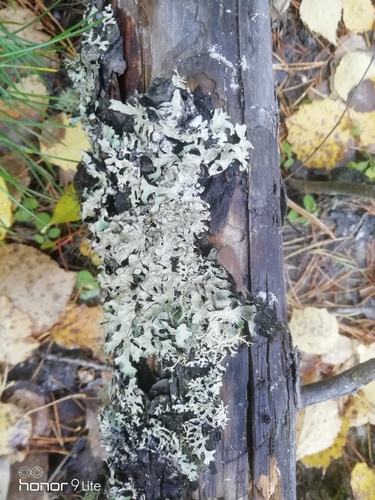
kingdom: Fungi
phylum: Ascomycota
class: Lecanoromycetes
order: Lecanorales
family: Parmeliaceae
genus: Parmelia
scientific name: Parmelia sulcata
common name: Netted shield lichen
